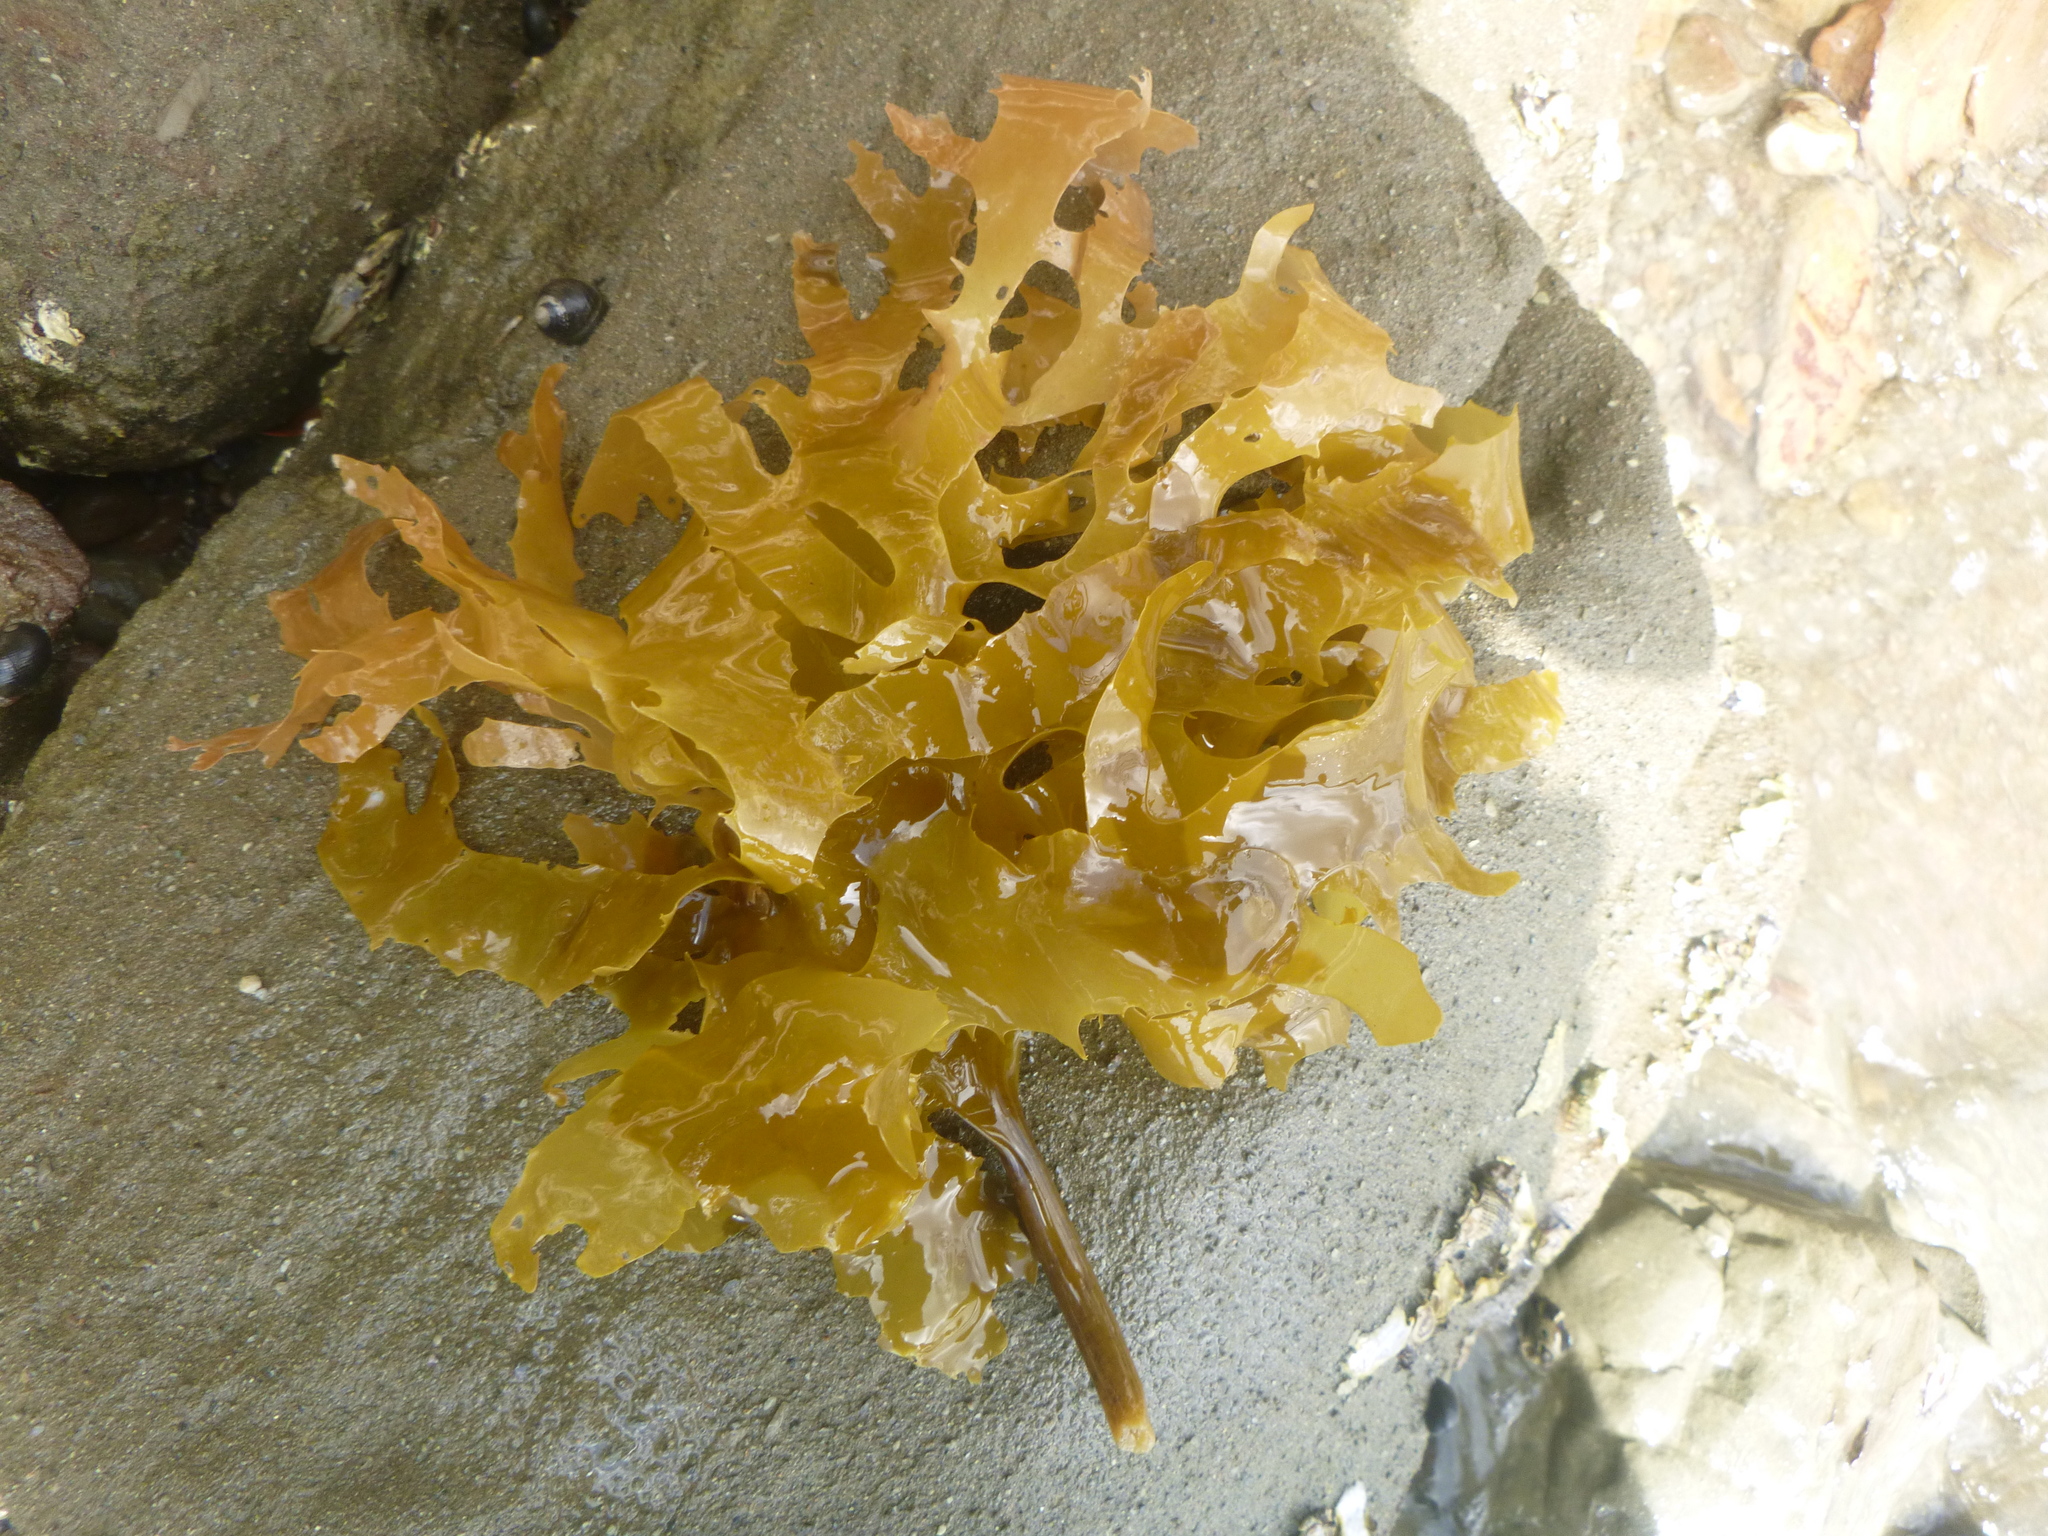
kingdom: Chromista
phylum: Ochrophyta
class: Phaeophyceae
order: Laminariales
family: Lessoniaceae
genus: Ecklonia
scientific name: Ecklonia radiata
